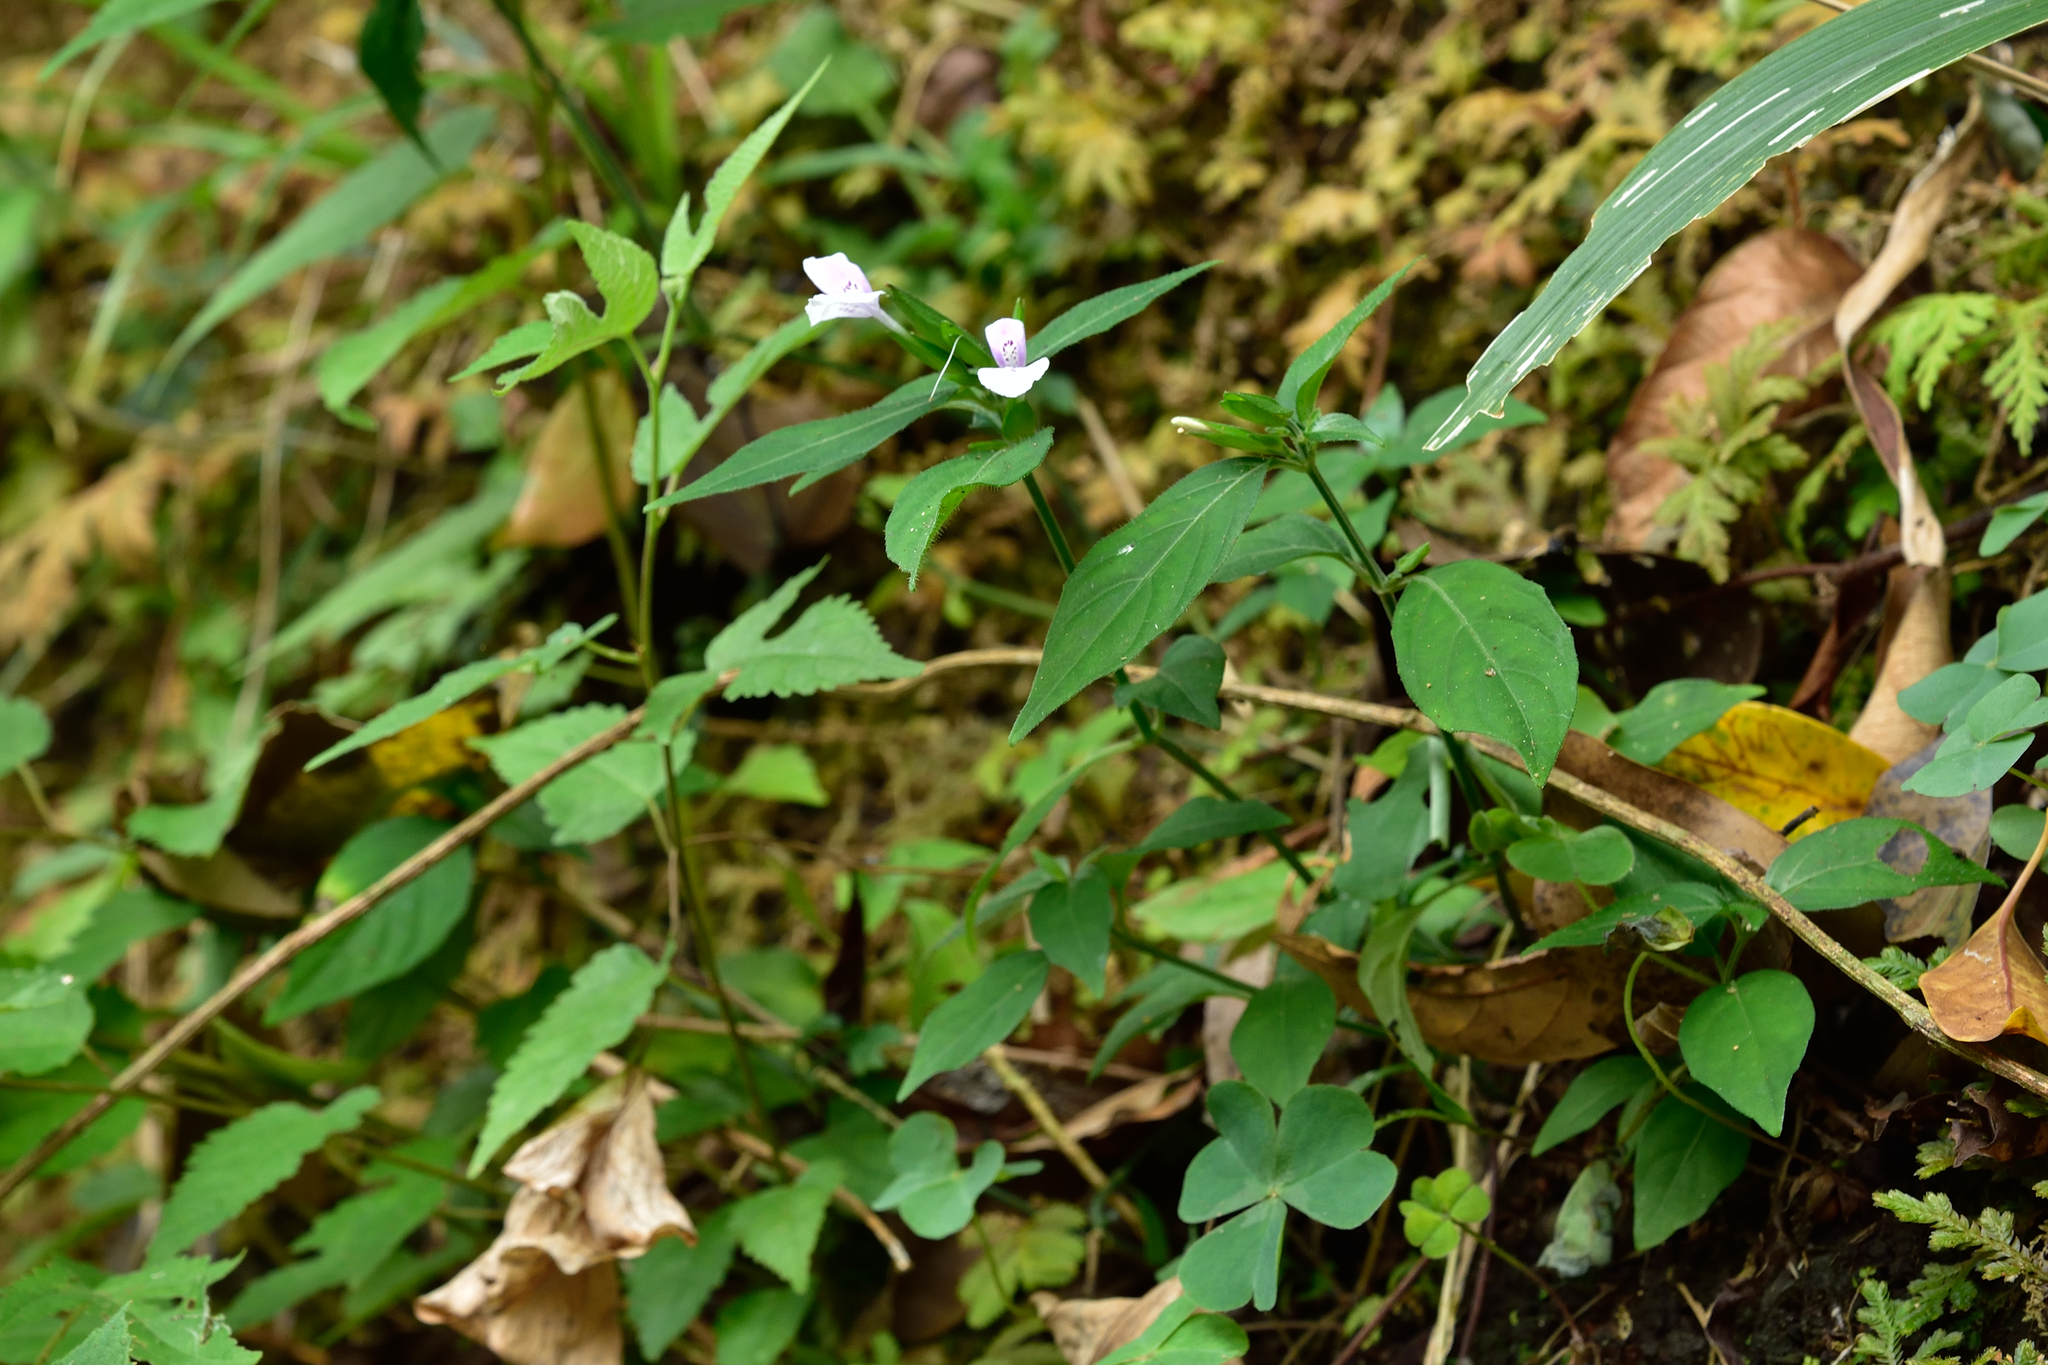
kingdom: Plantae
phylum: Tracheophyta
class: Magnoliopsida
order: Lamiales
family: Acanthaceae
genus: Dicliptera
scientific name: Dicliptera japonica
